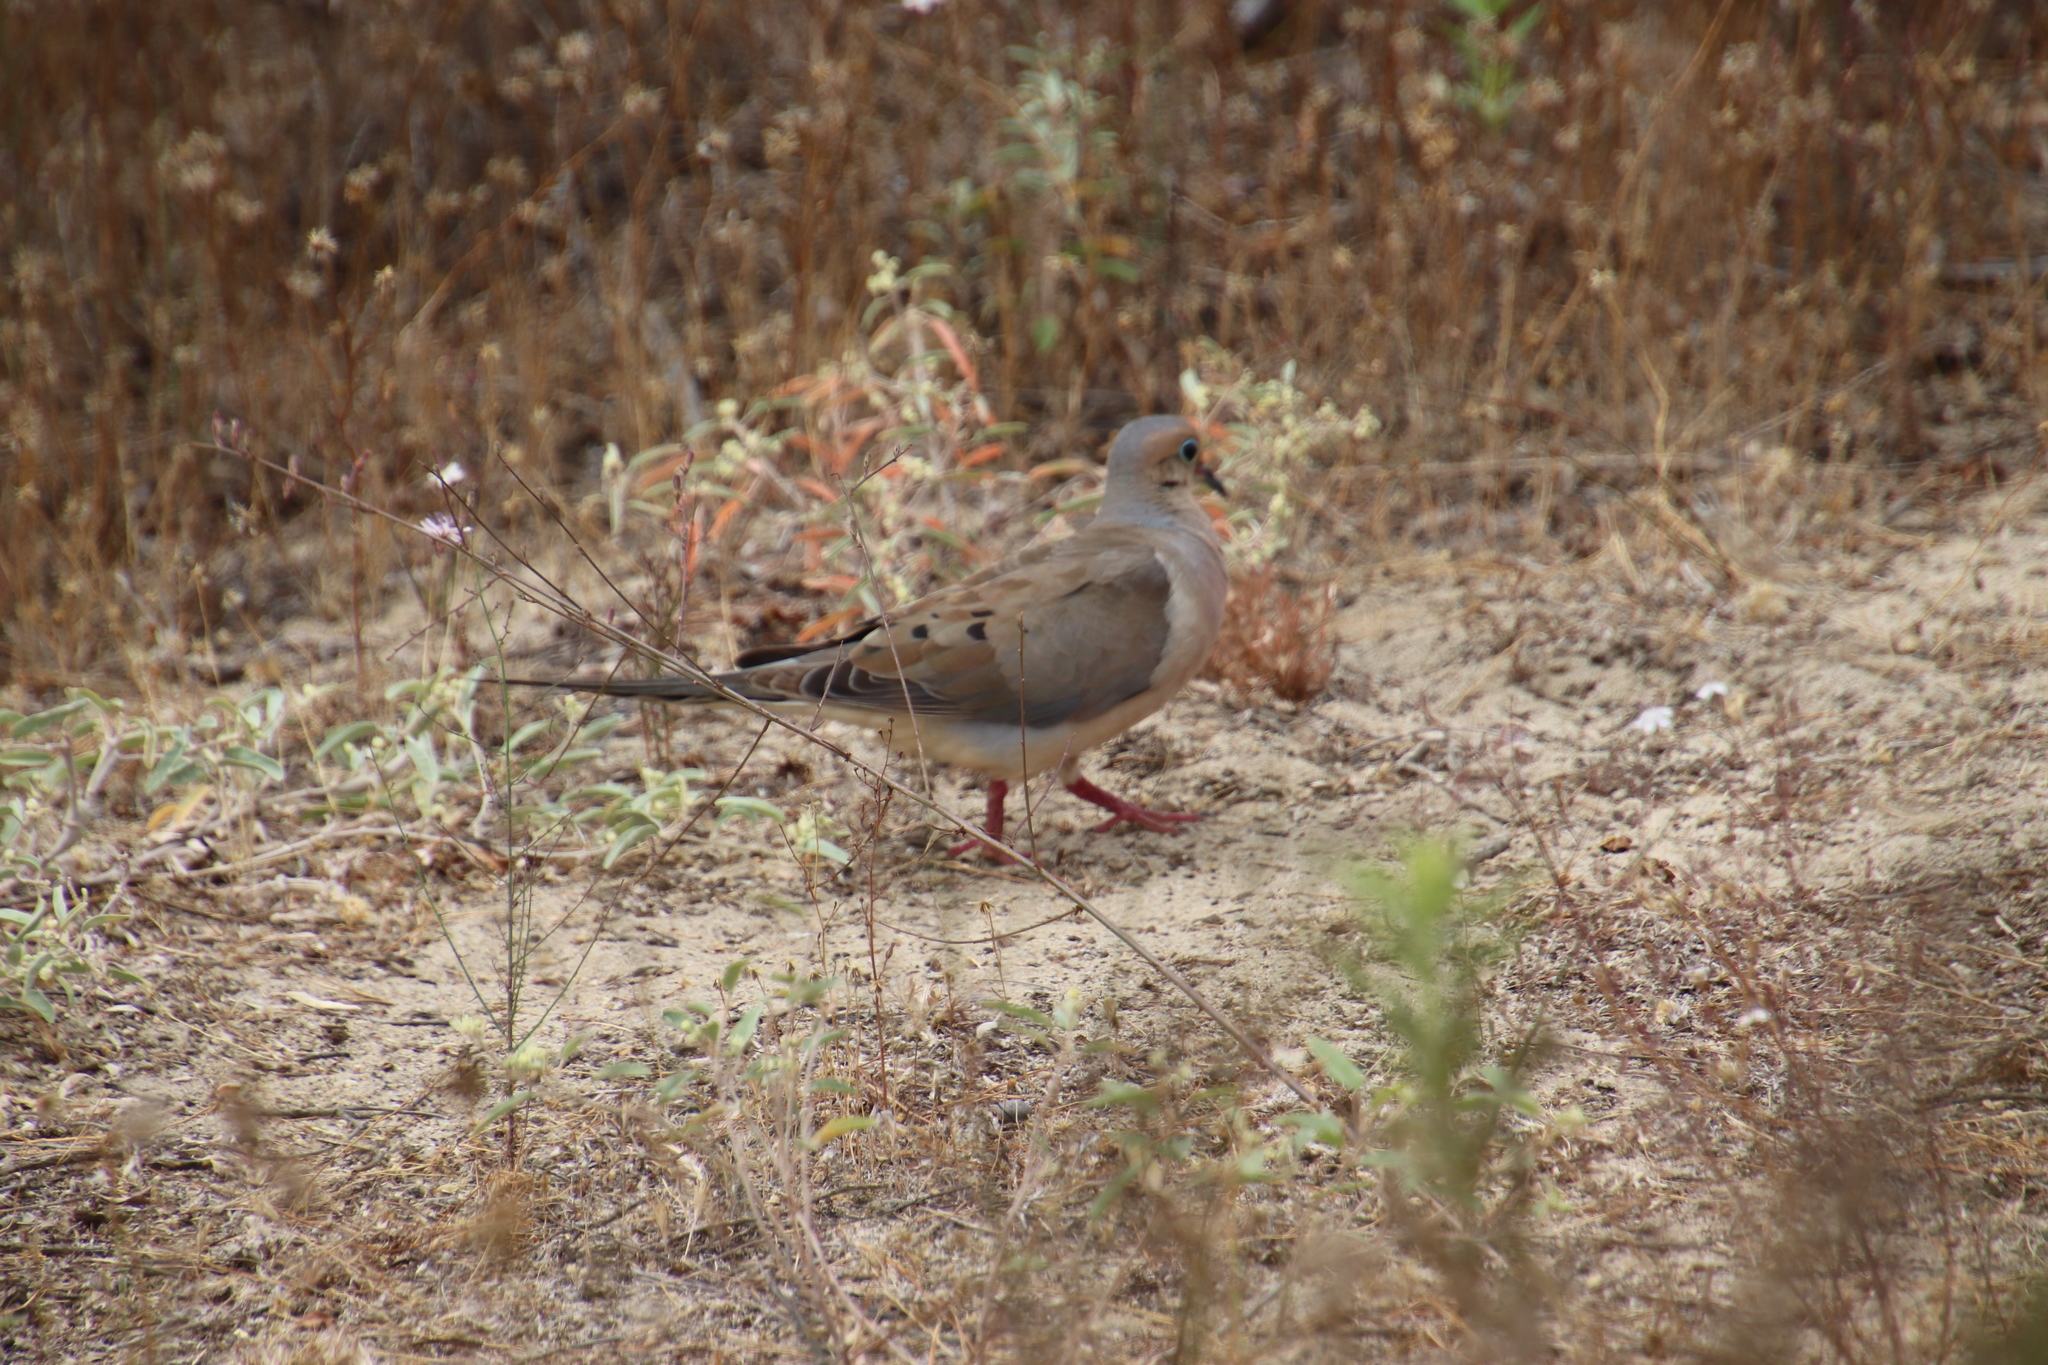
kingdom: Animalia
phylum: Chordata
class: Aves
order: Columbiformes
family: Columbidae
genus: Zenaida
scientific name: Zenaida macroura
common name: Mourning dove
